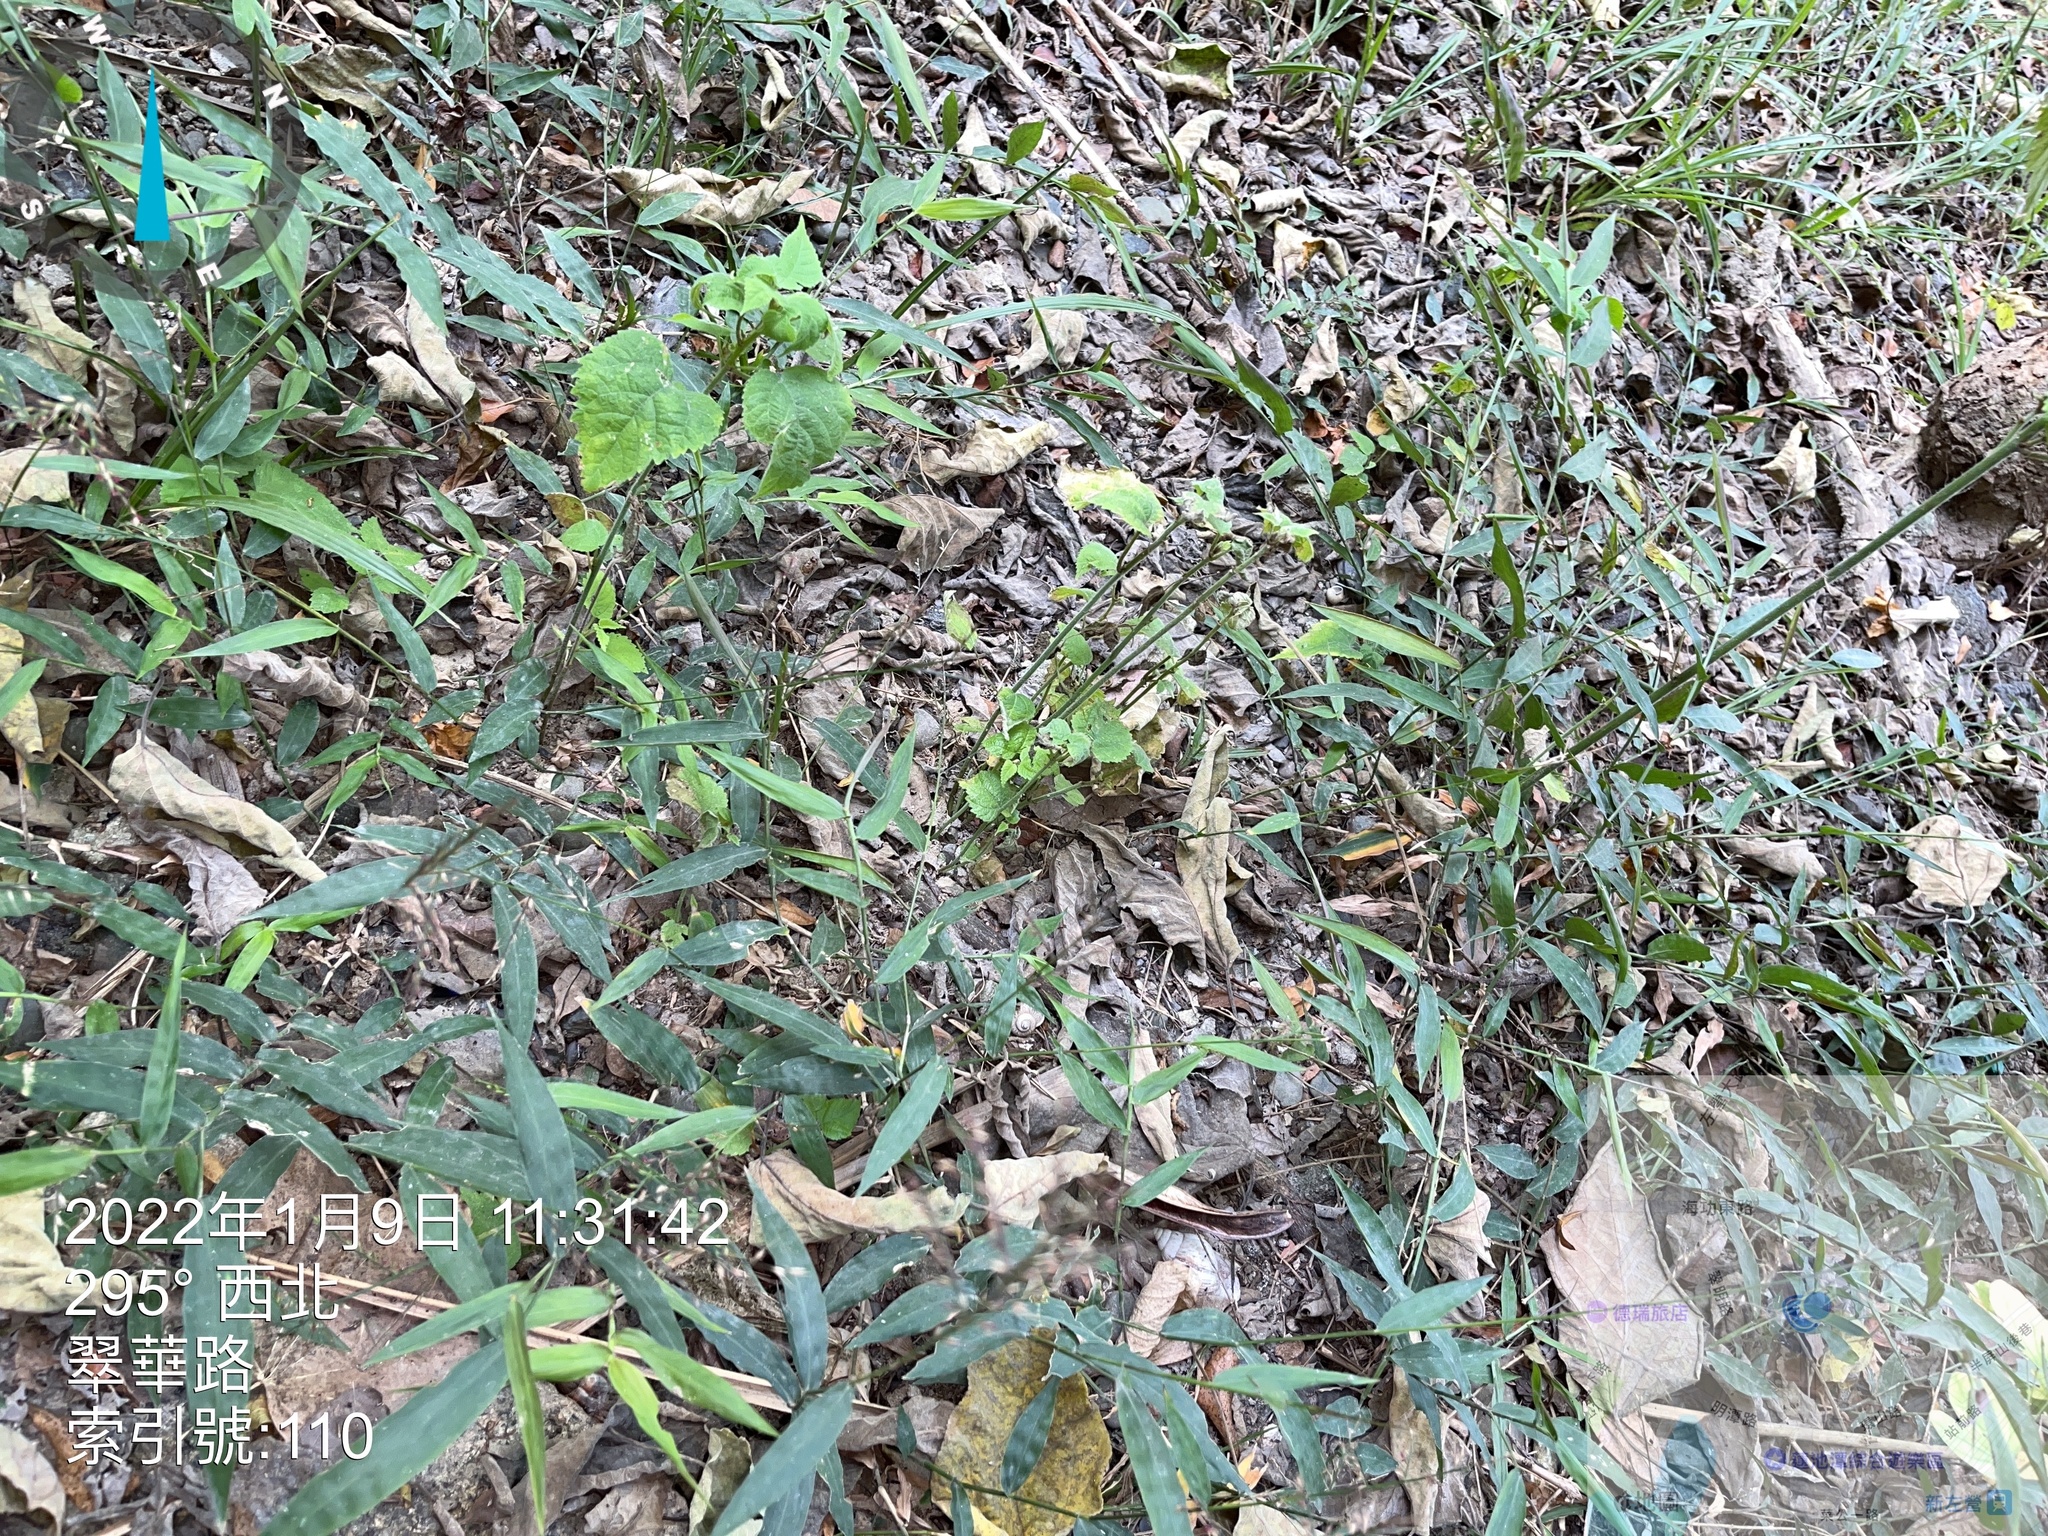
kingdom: Plantae
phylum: Tracheophyta
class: Liliopsida
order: Poales
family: Poaceae
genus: Oplismenus
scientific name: Oplismenus compositus
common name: Running mountain grass
